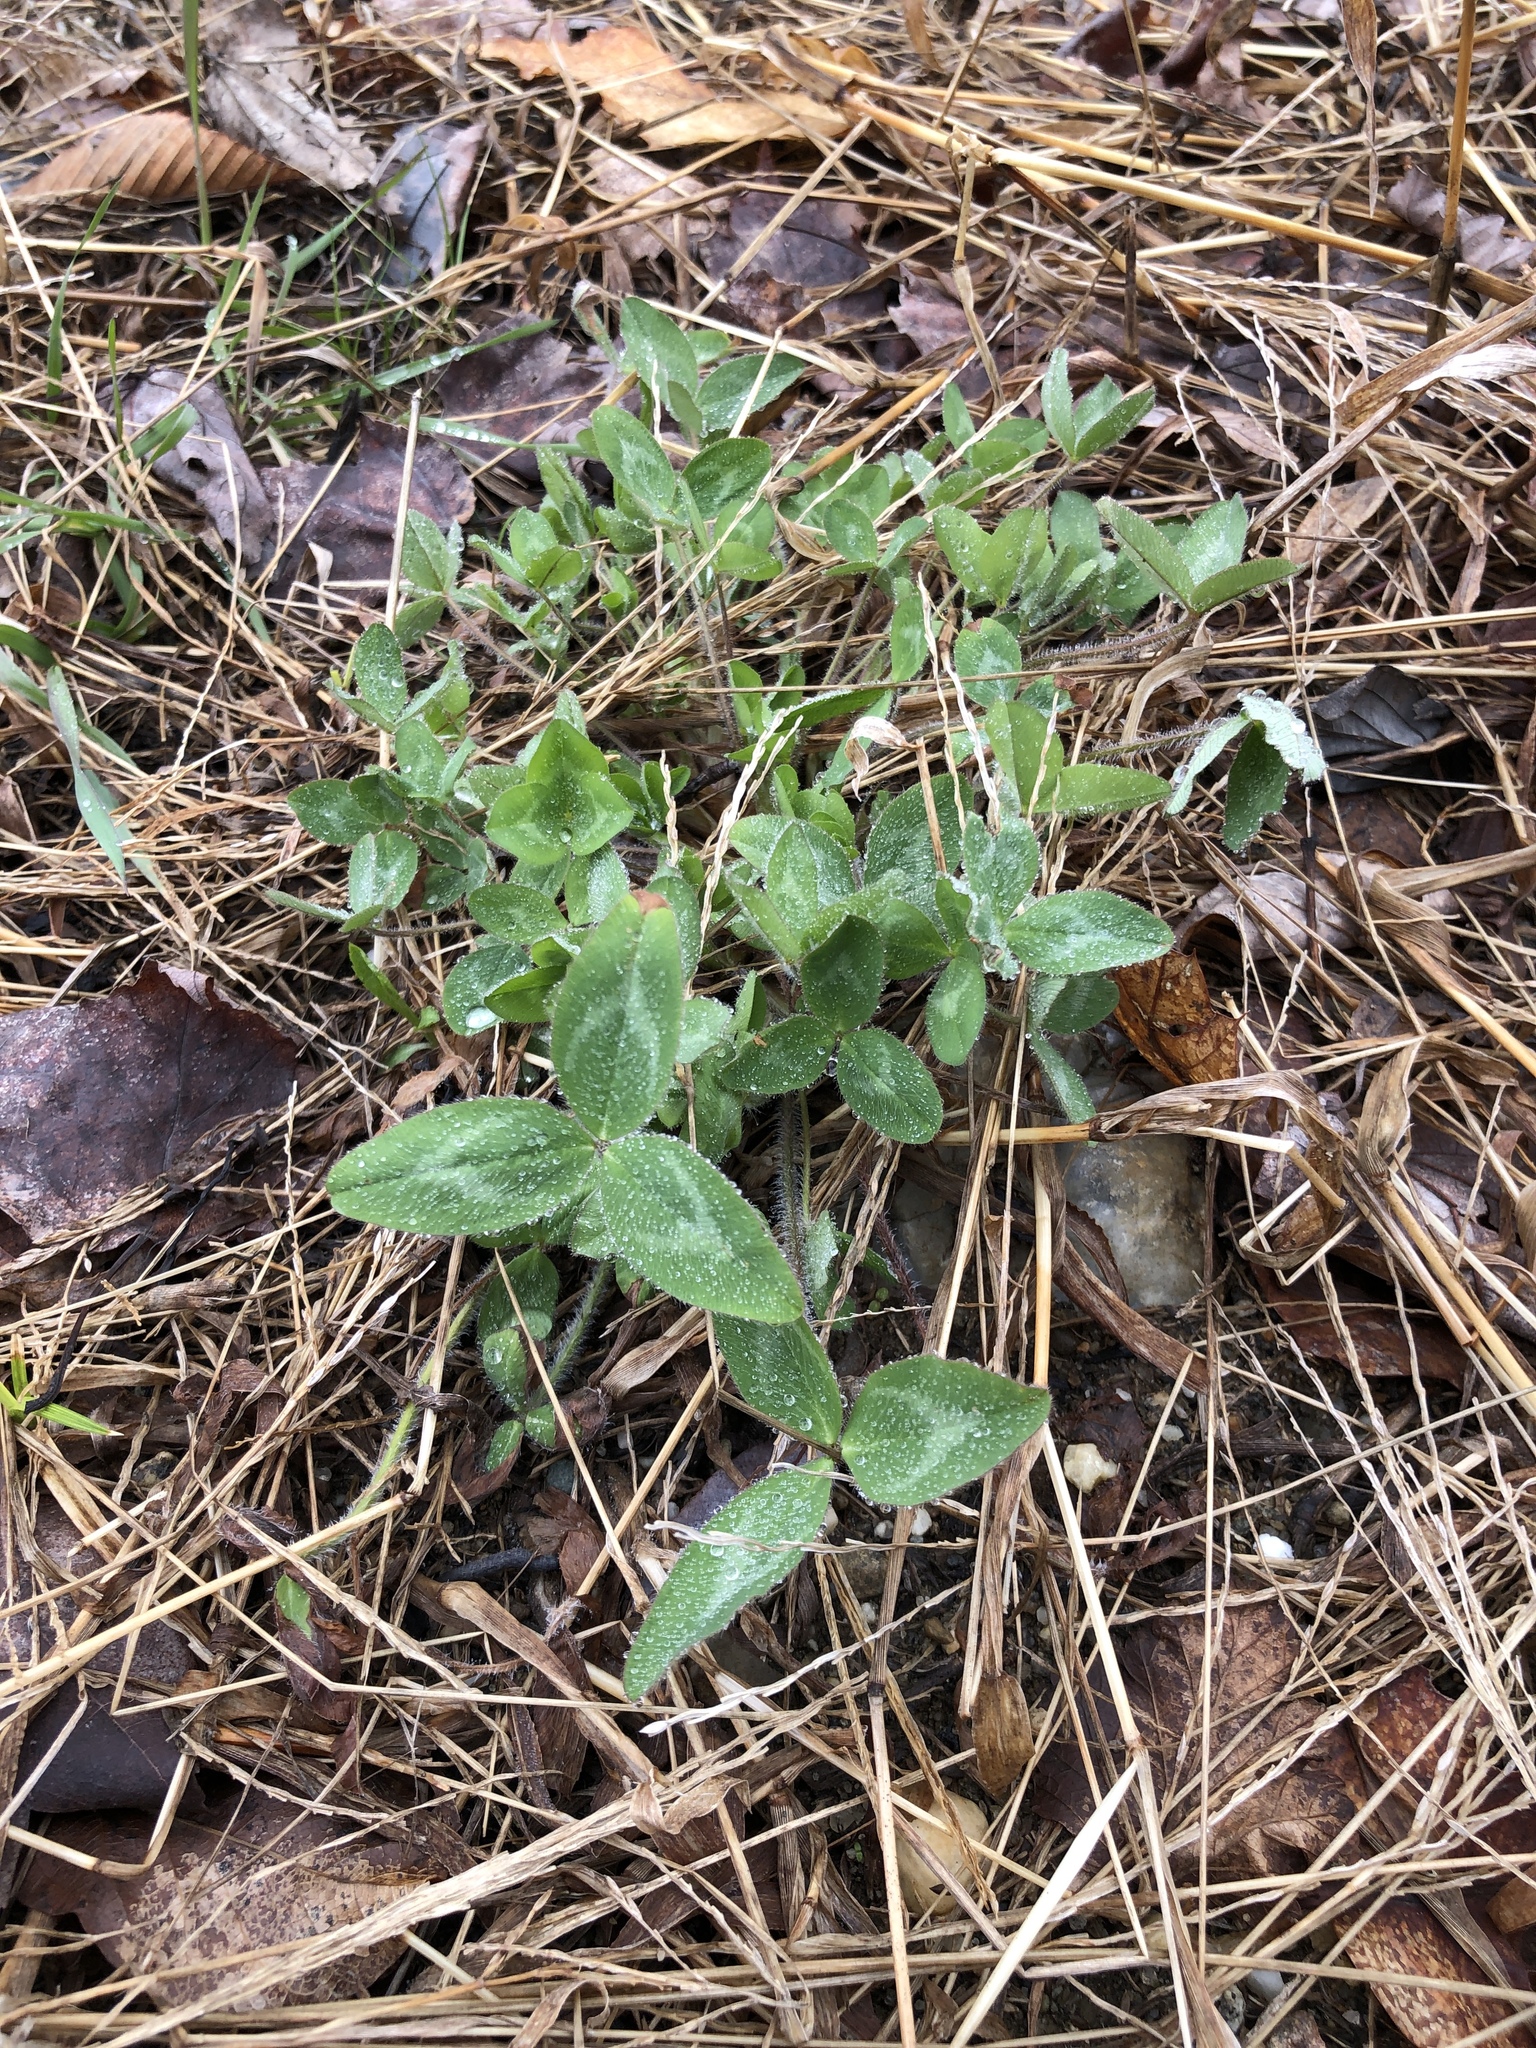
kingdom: Plantae
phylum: Tracheophyta
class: Magnoliopsida
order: Fabales
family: Fabaceae
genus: Trifolium
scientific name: Trifolium pratense
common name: Red clover
